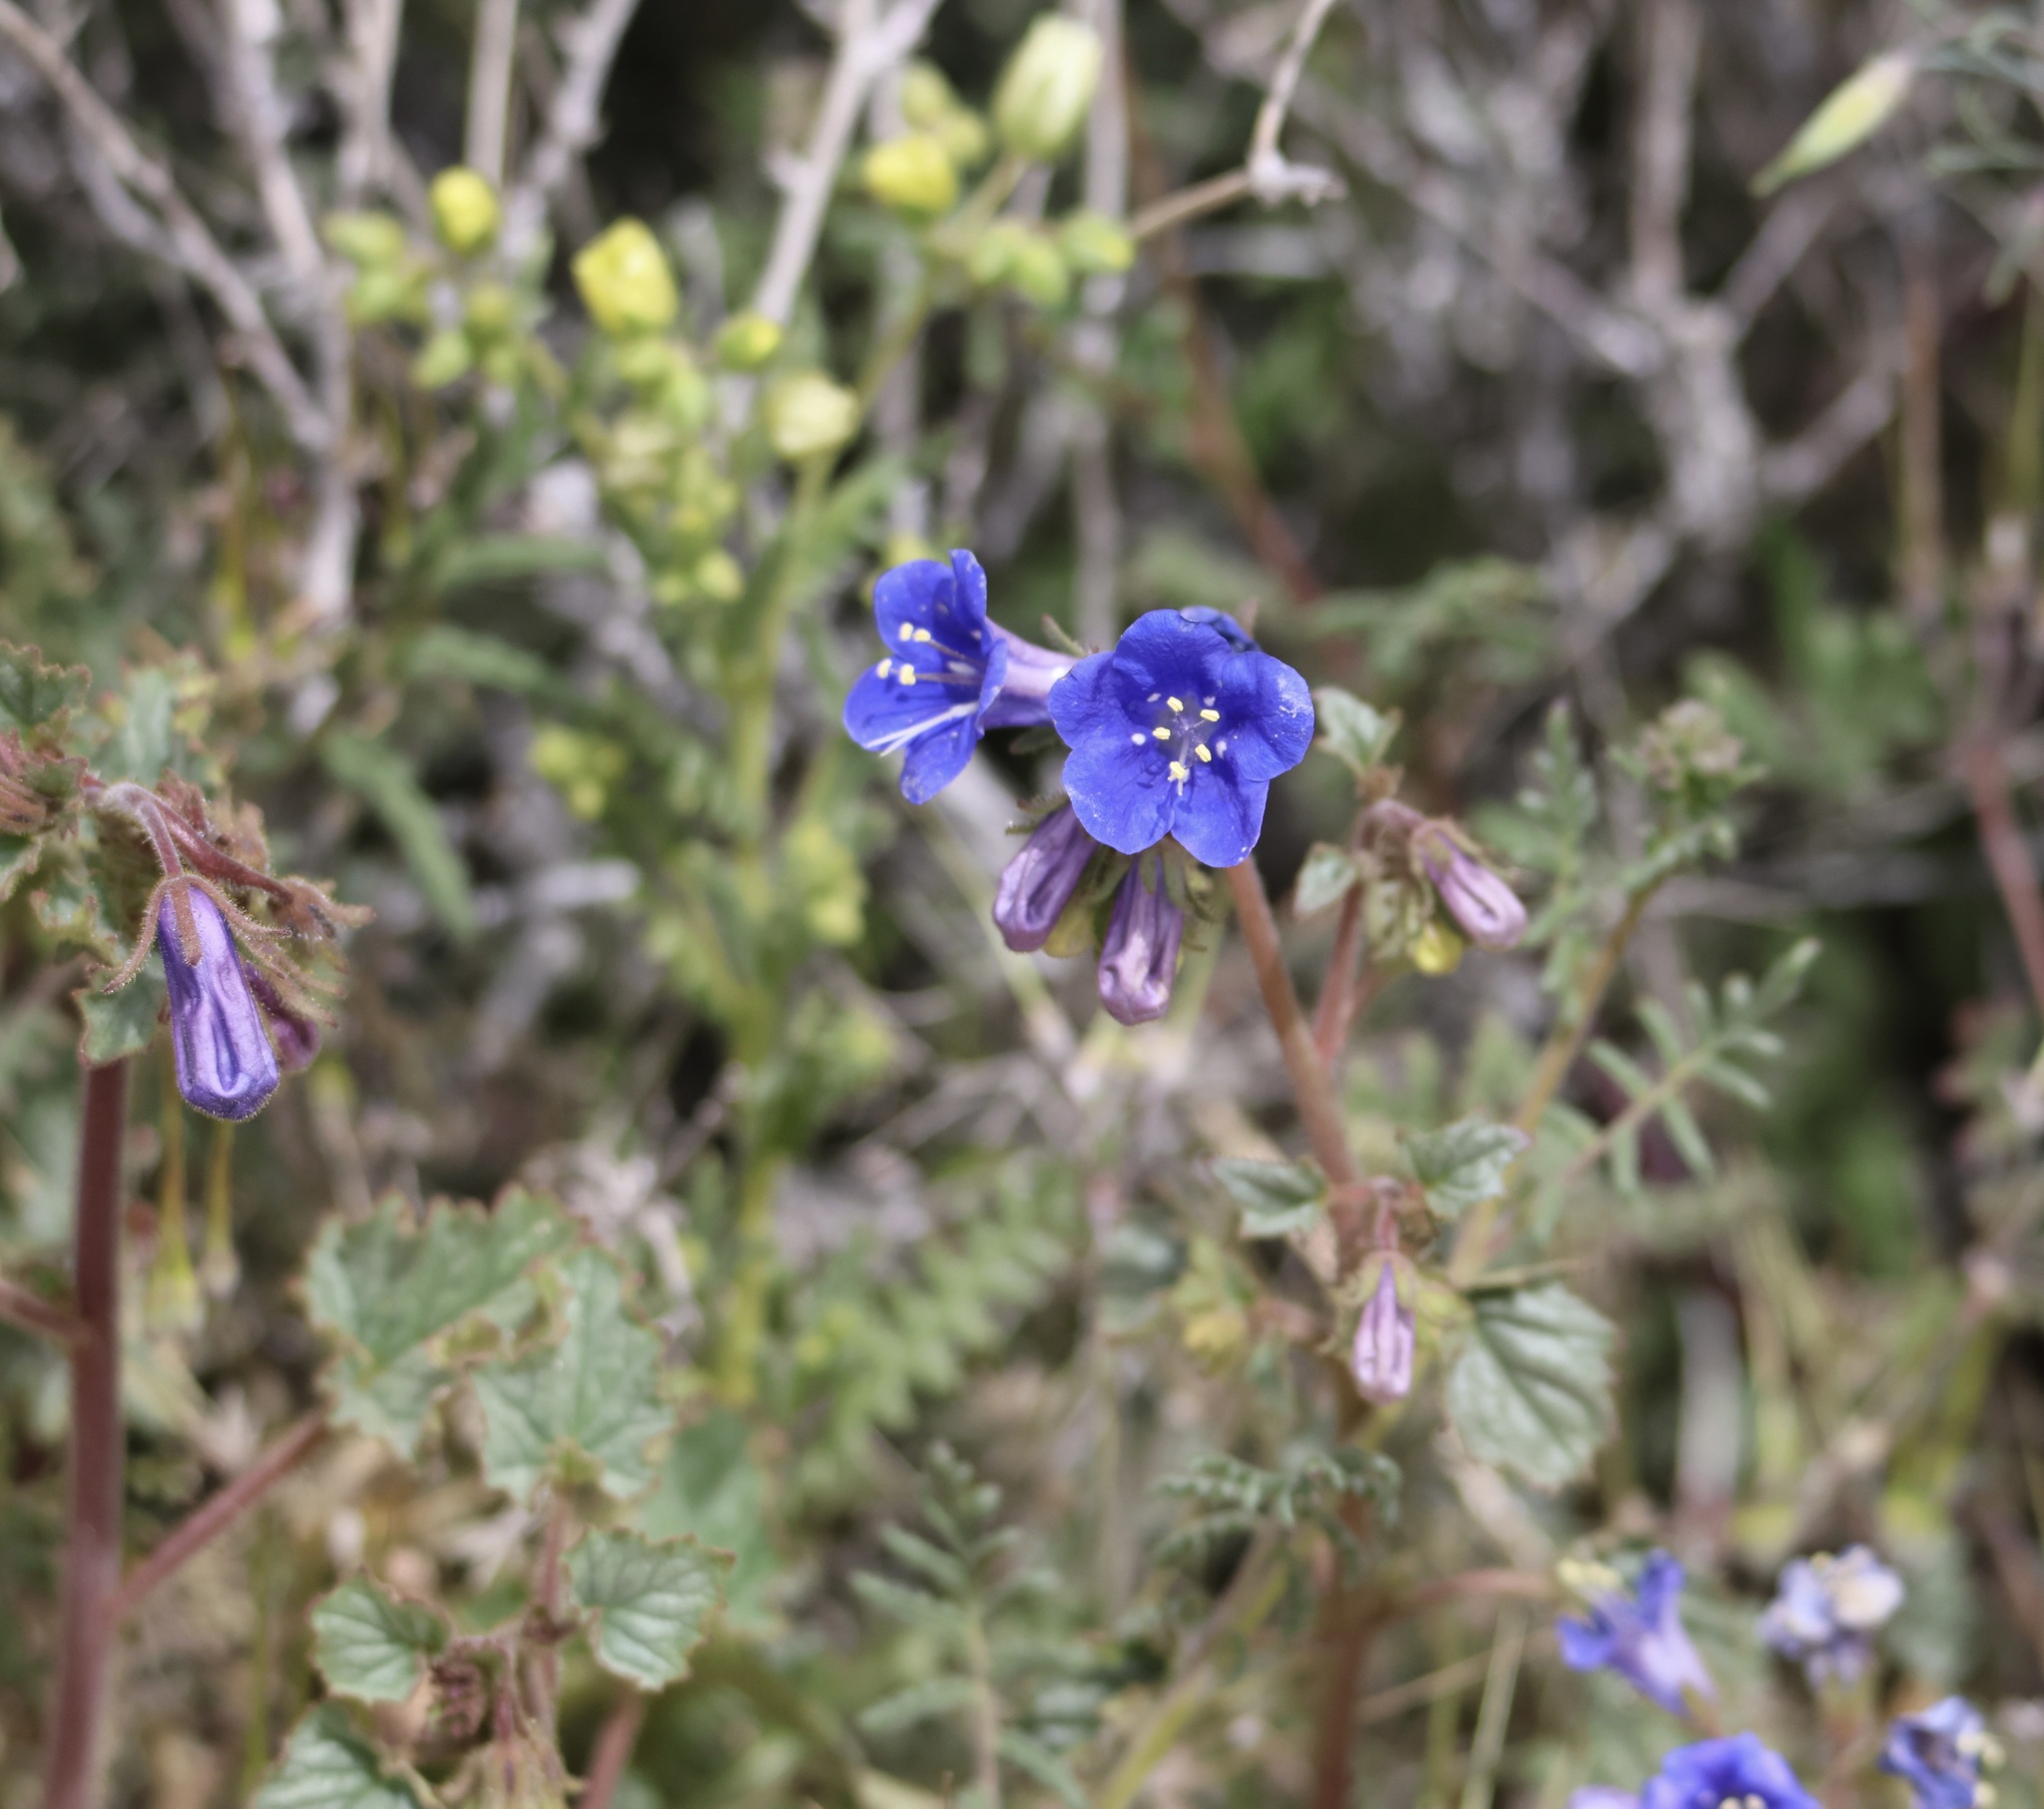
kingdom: Plantae
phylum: Tracheophyta
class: Magnoliopsida
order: Boraginales
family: Hydrophyllaceae
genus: Phacelia
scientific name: Phacelia campanularia
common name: California bluebell
